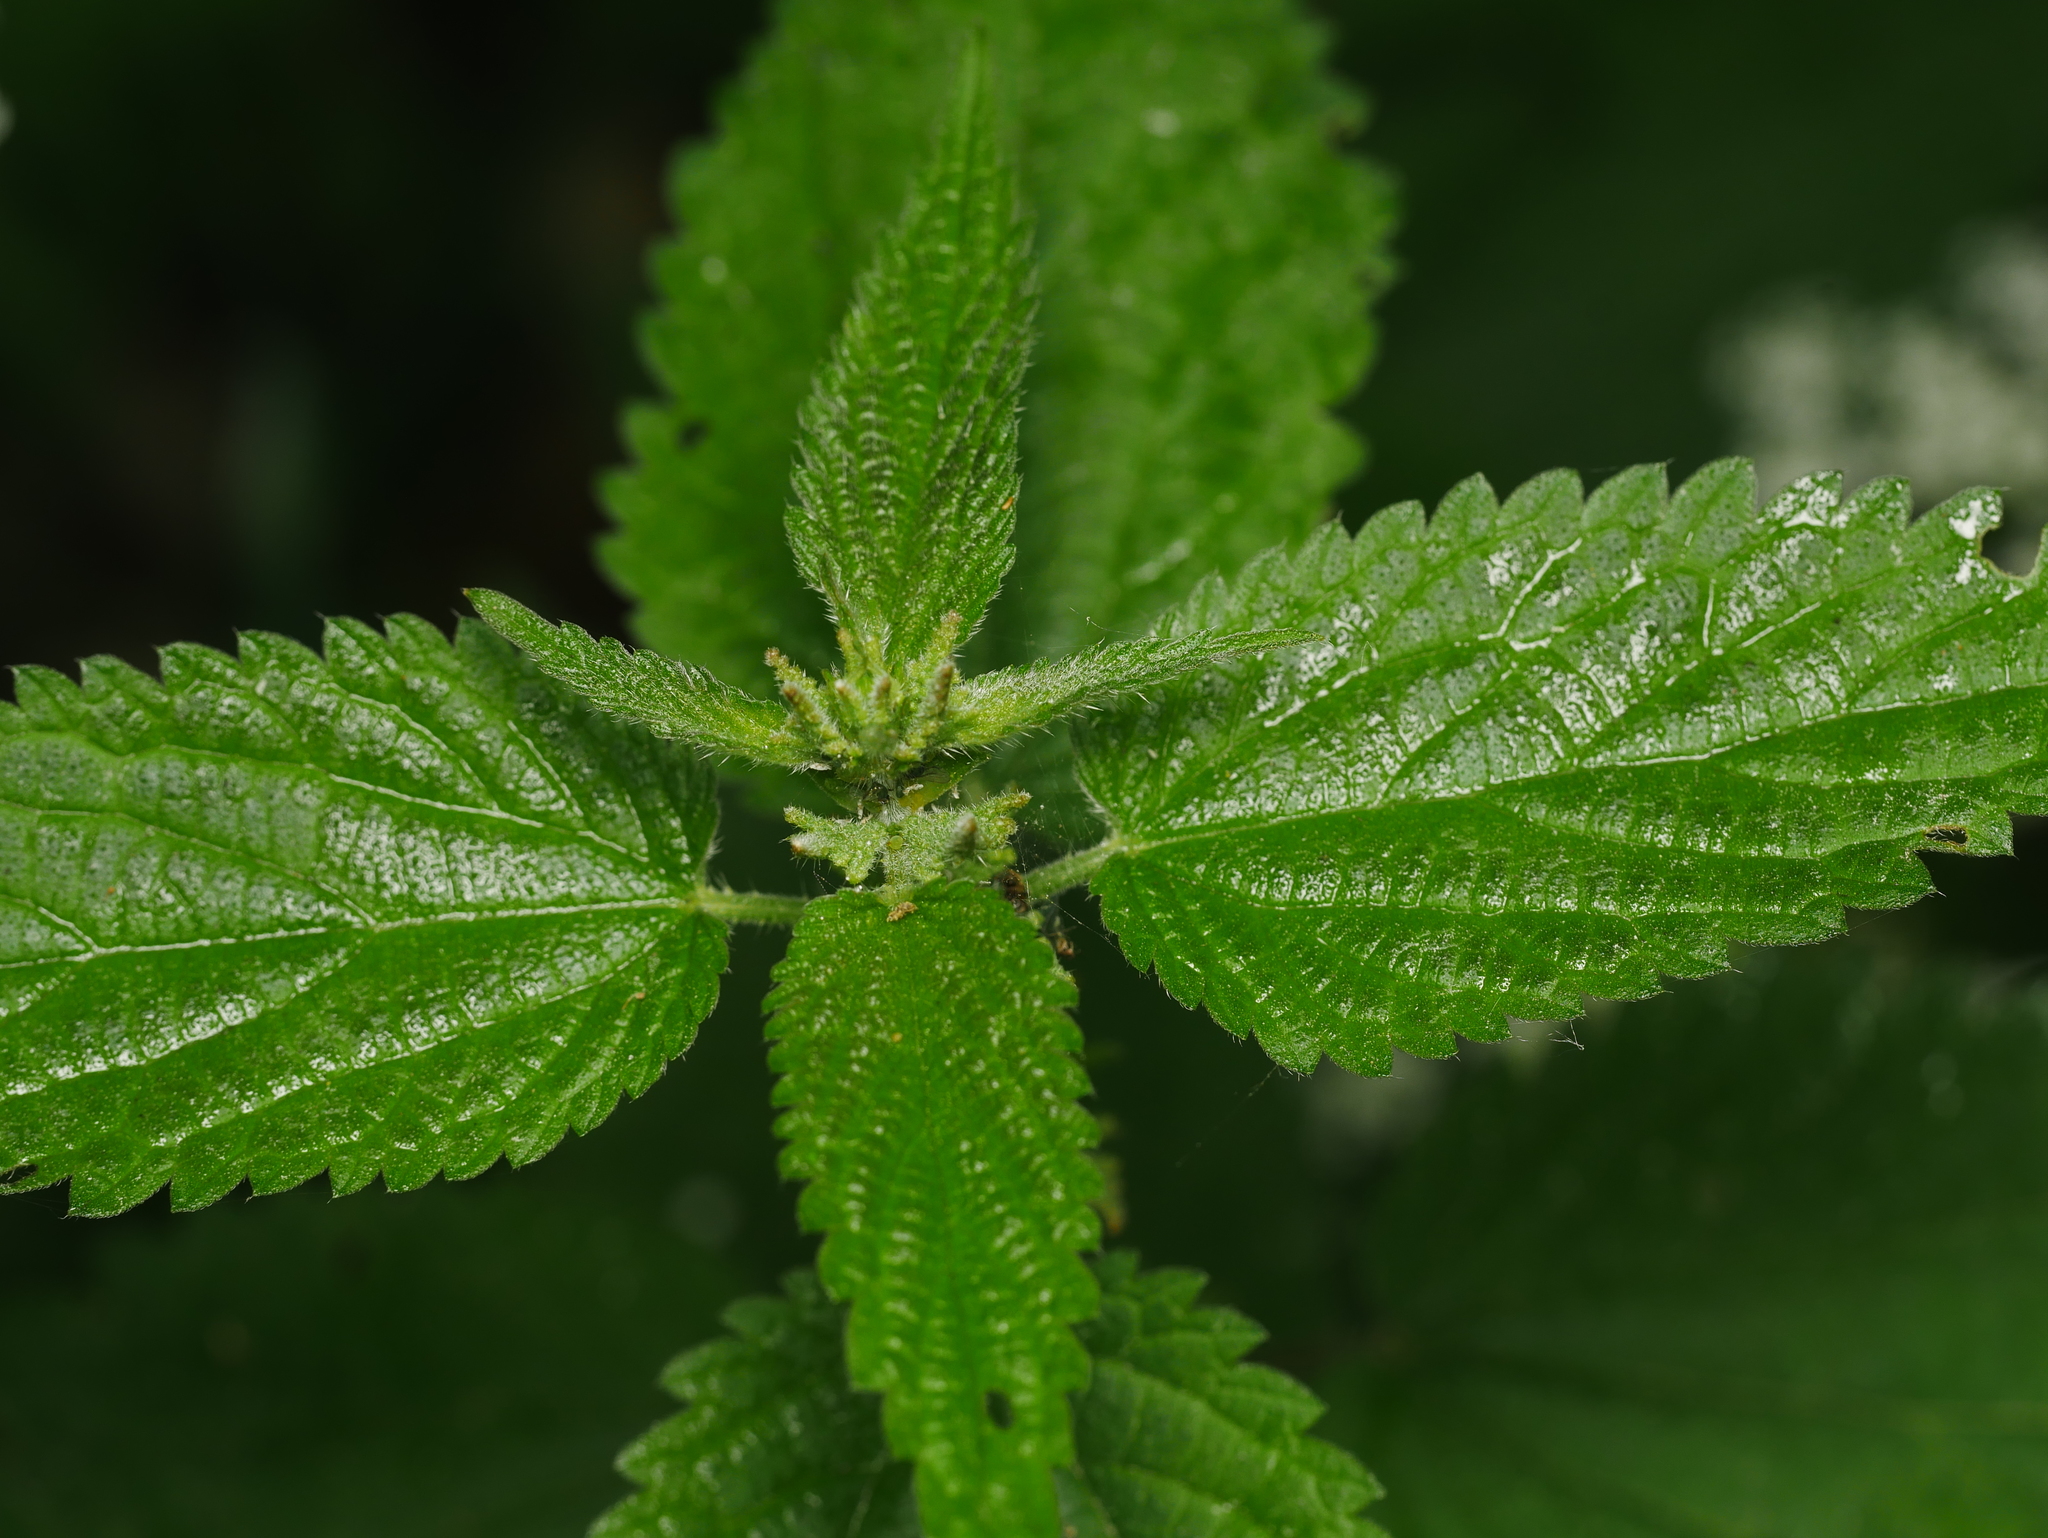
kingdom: Plantae
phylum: Tracheophyta
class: Magnoliopsida
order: Rosales
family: Urticaceae
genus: Urtica
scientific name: Urtica dioica
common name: Common nettle
